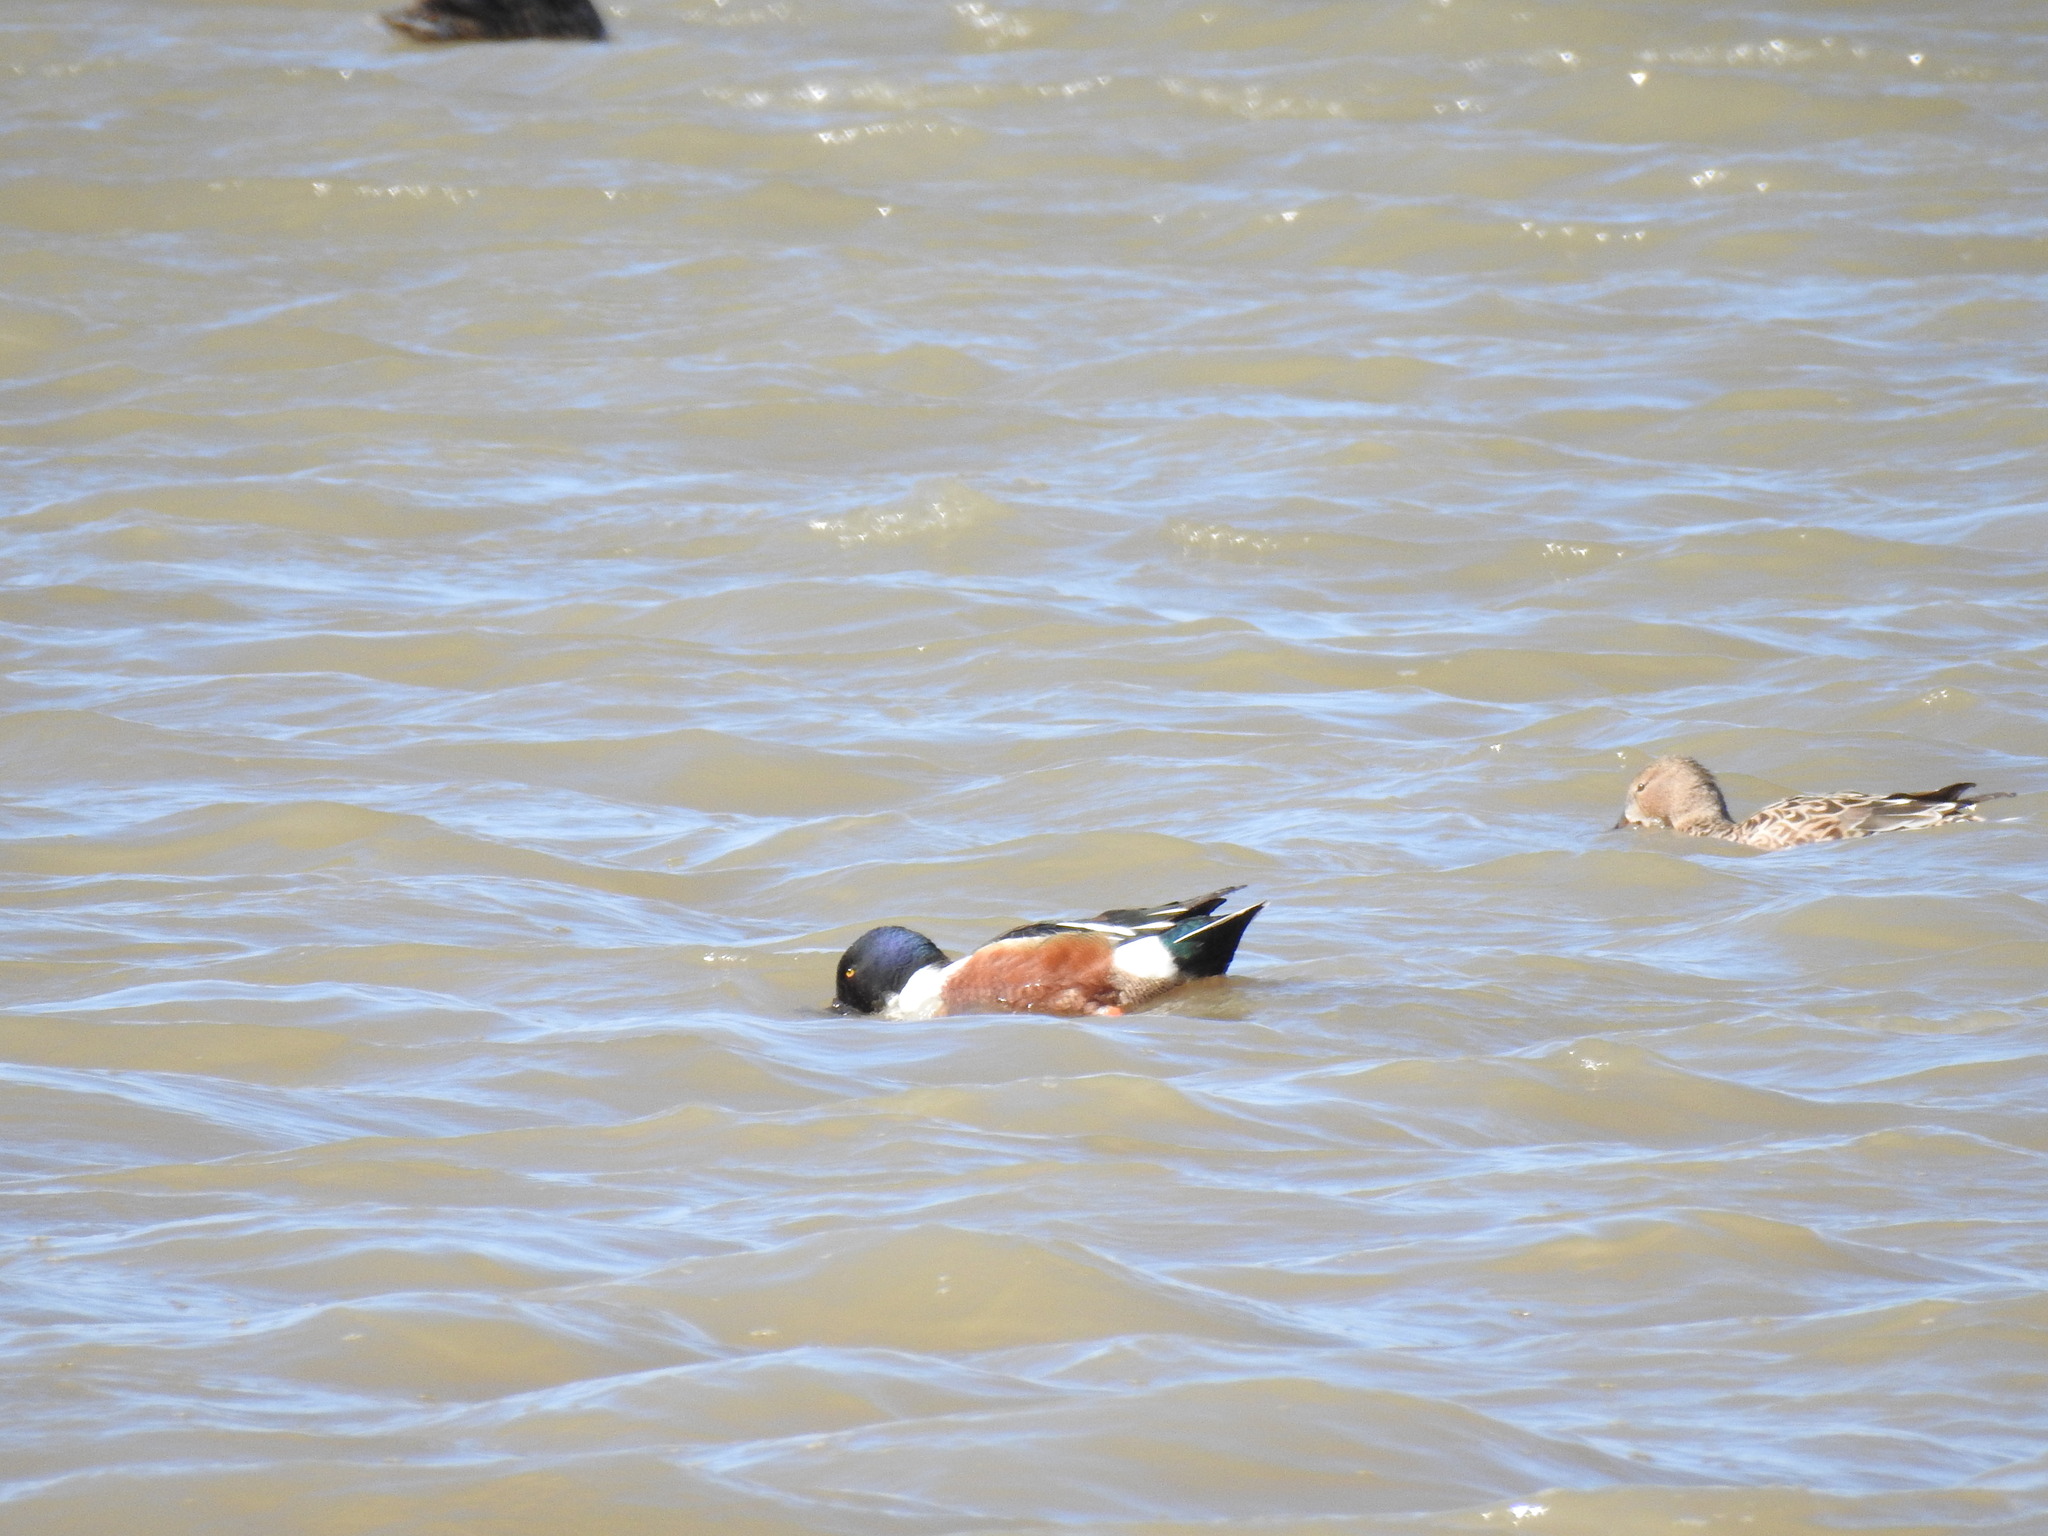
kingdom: Animalia
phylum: Chordata
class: Aves
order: Anseriformes
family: Anatidae
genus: Spatula
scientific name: Spatula clypeata
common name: Northern shoveler
